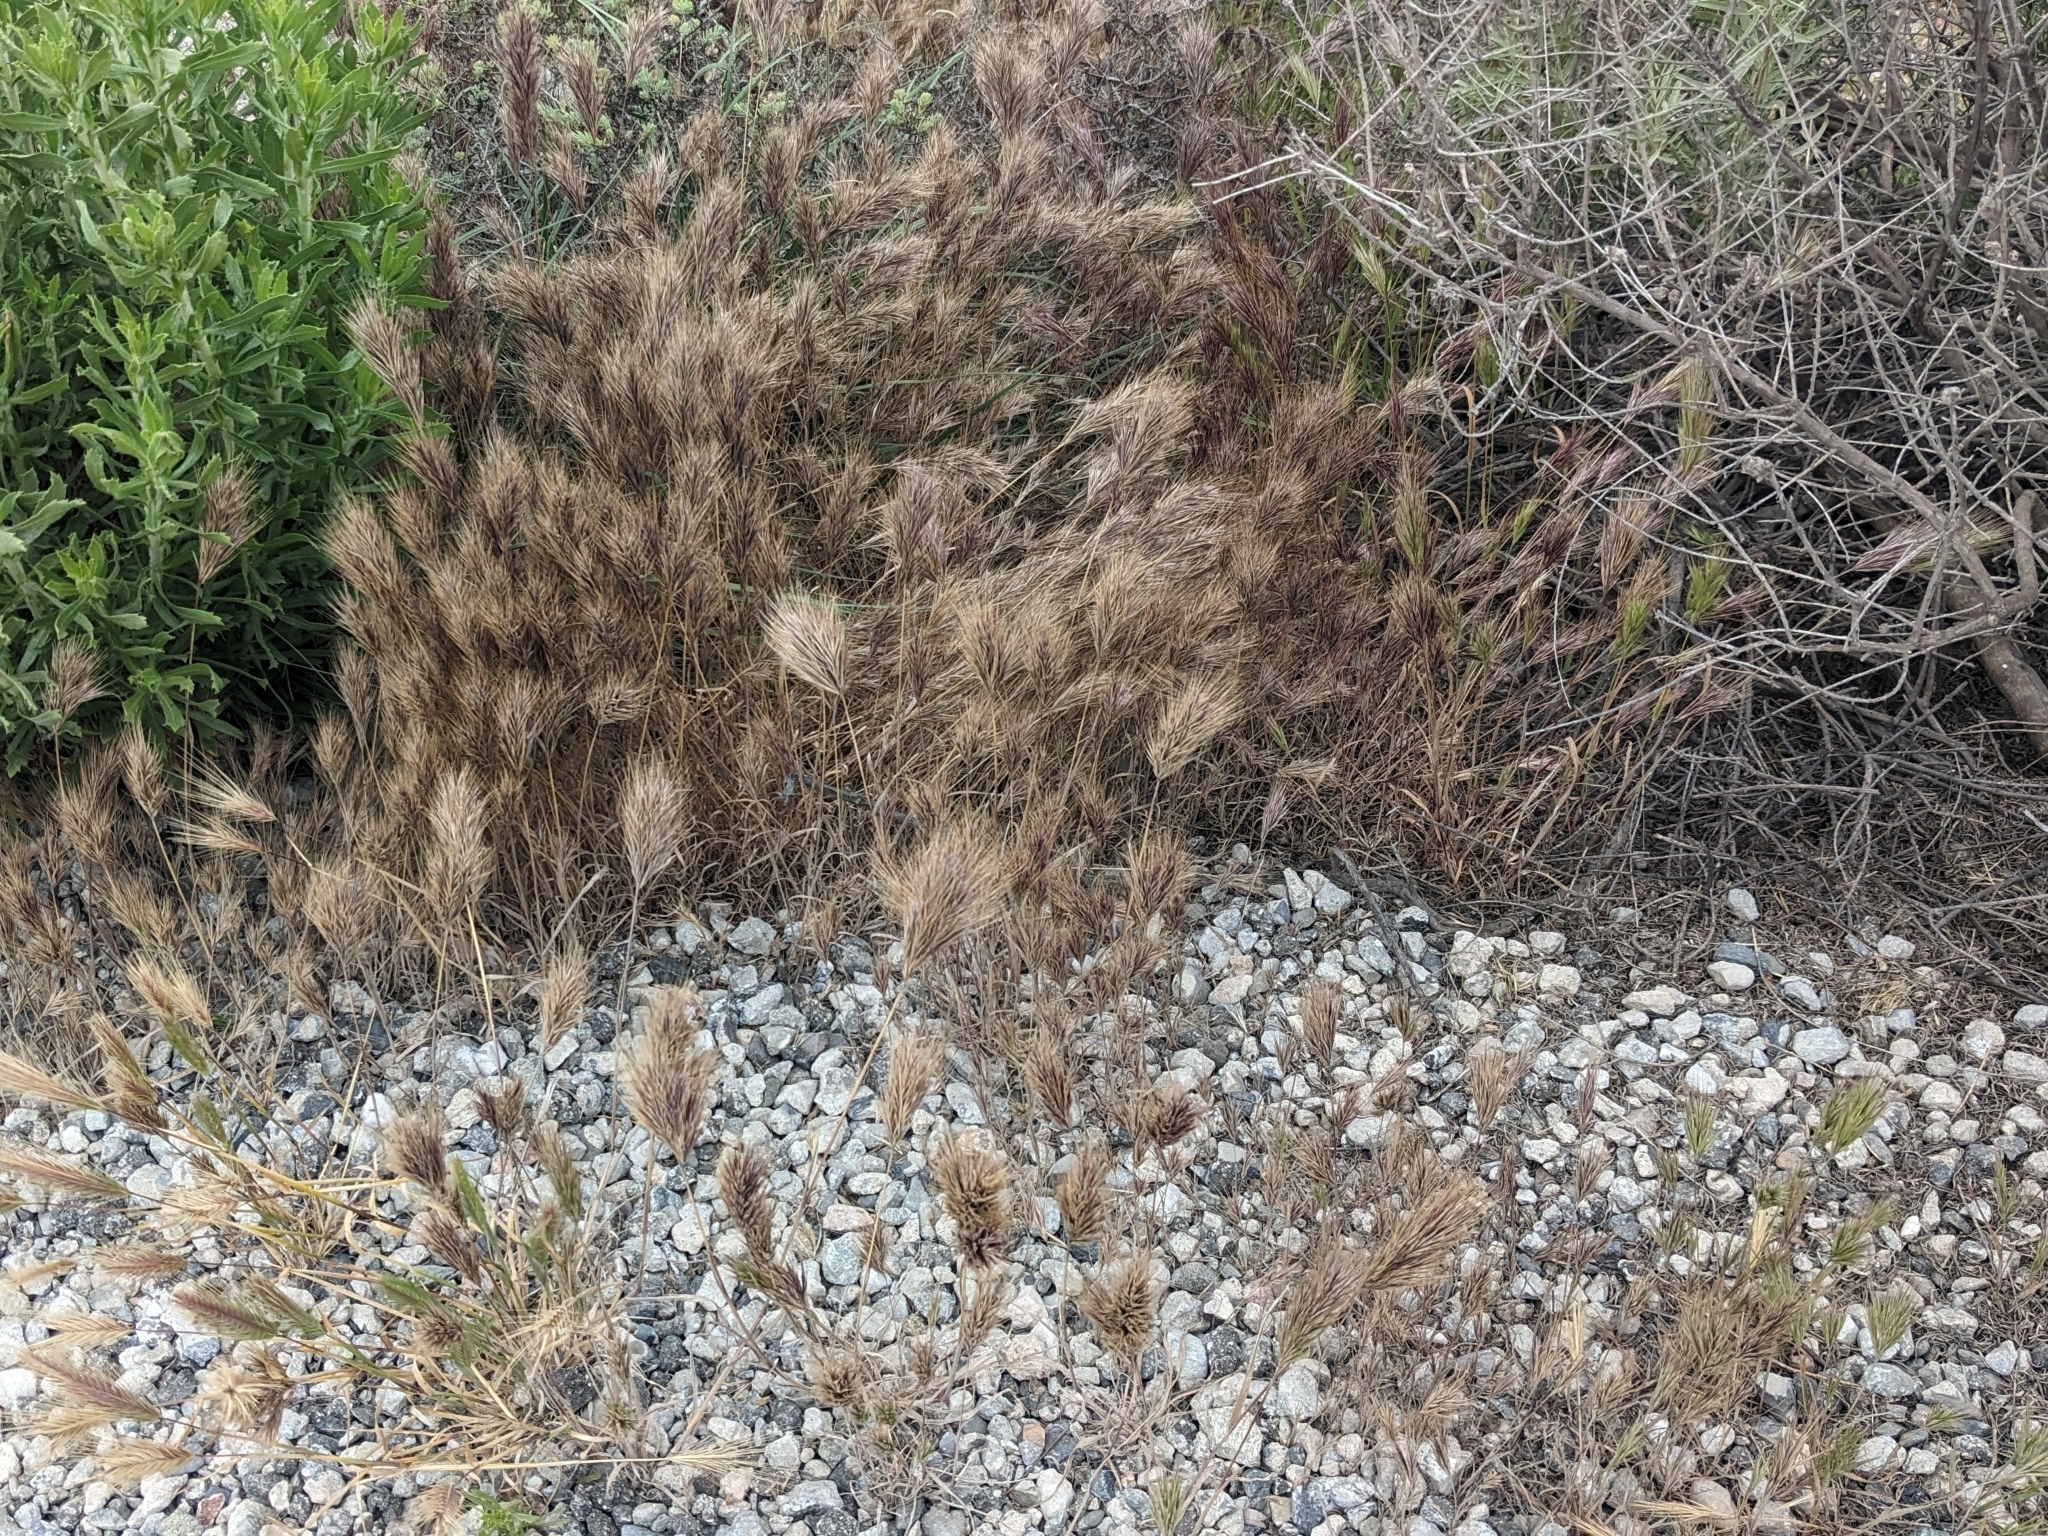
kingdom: Plantae
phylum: Tracheophyta
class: Liliopsida
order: Poales
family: Poaceae
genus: Bromus
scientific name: Bromus rubens
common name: Red brome
